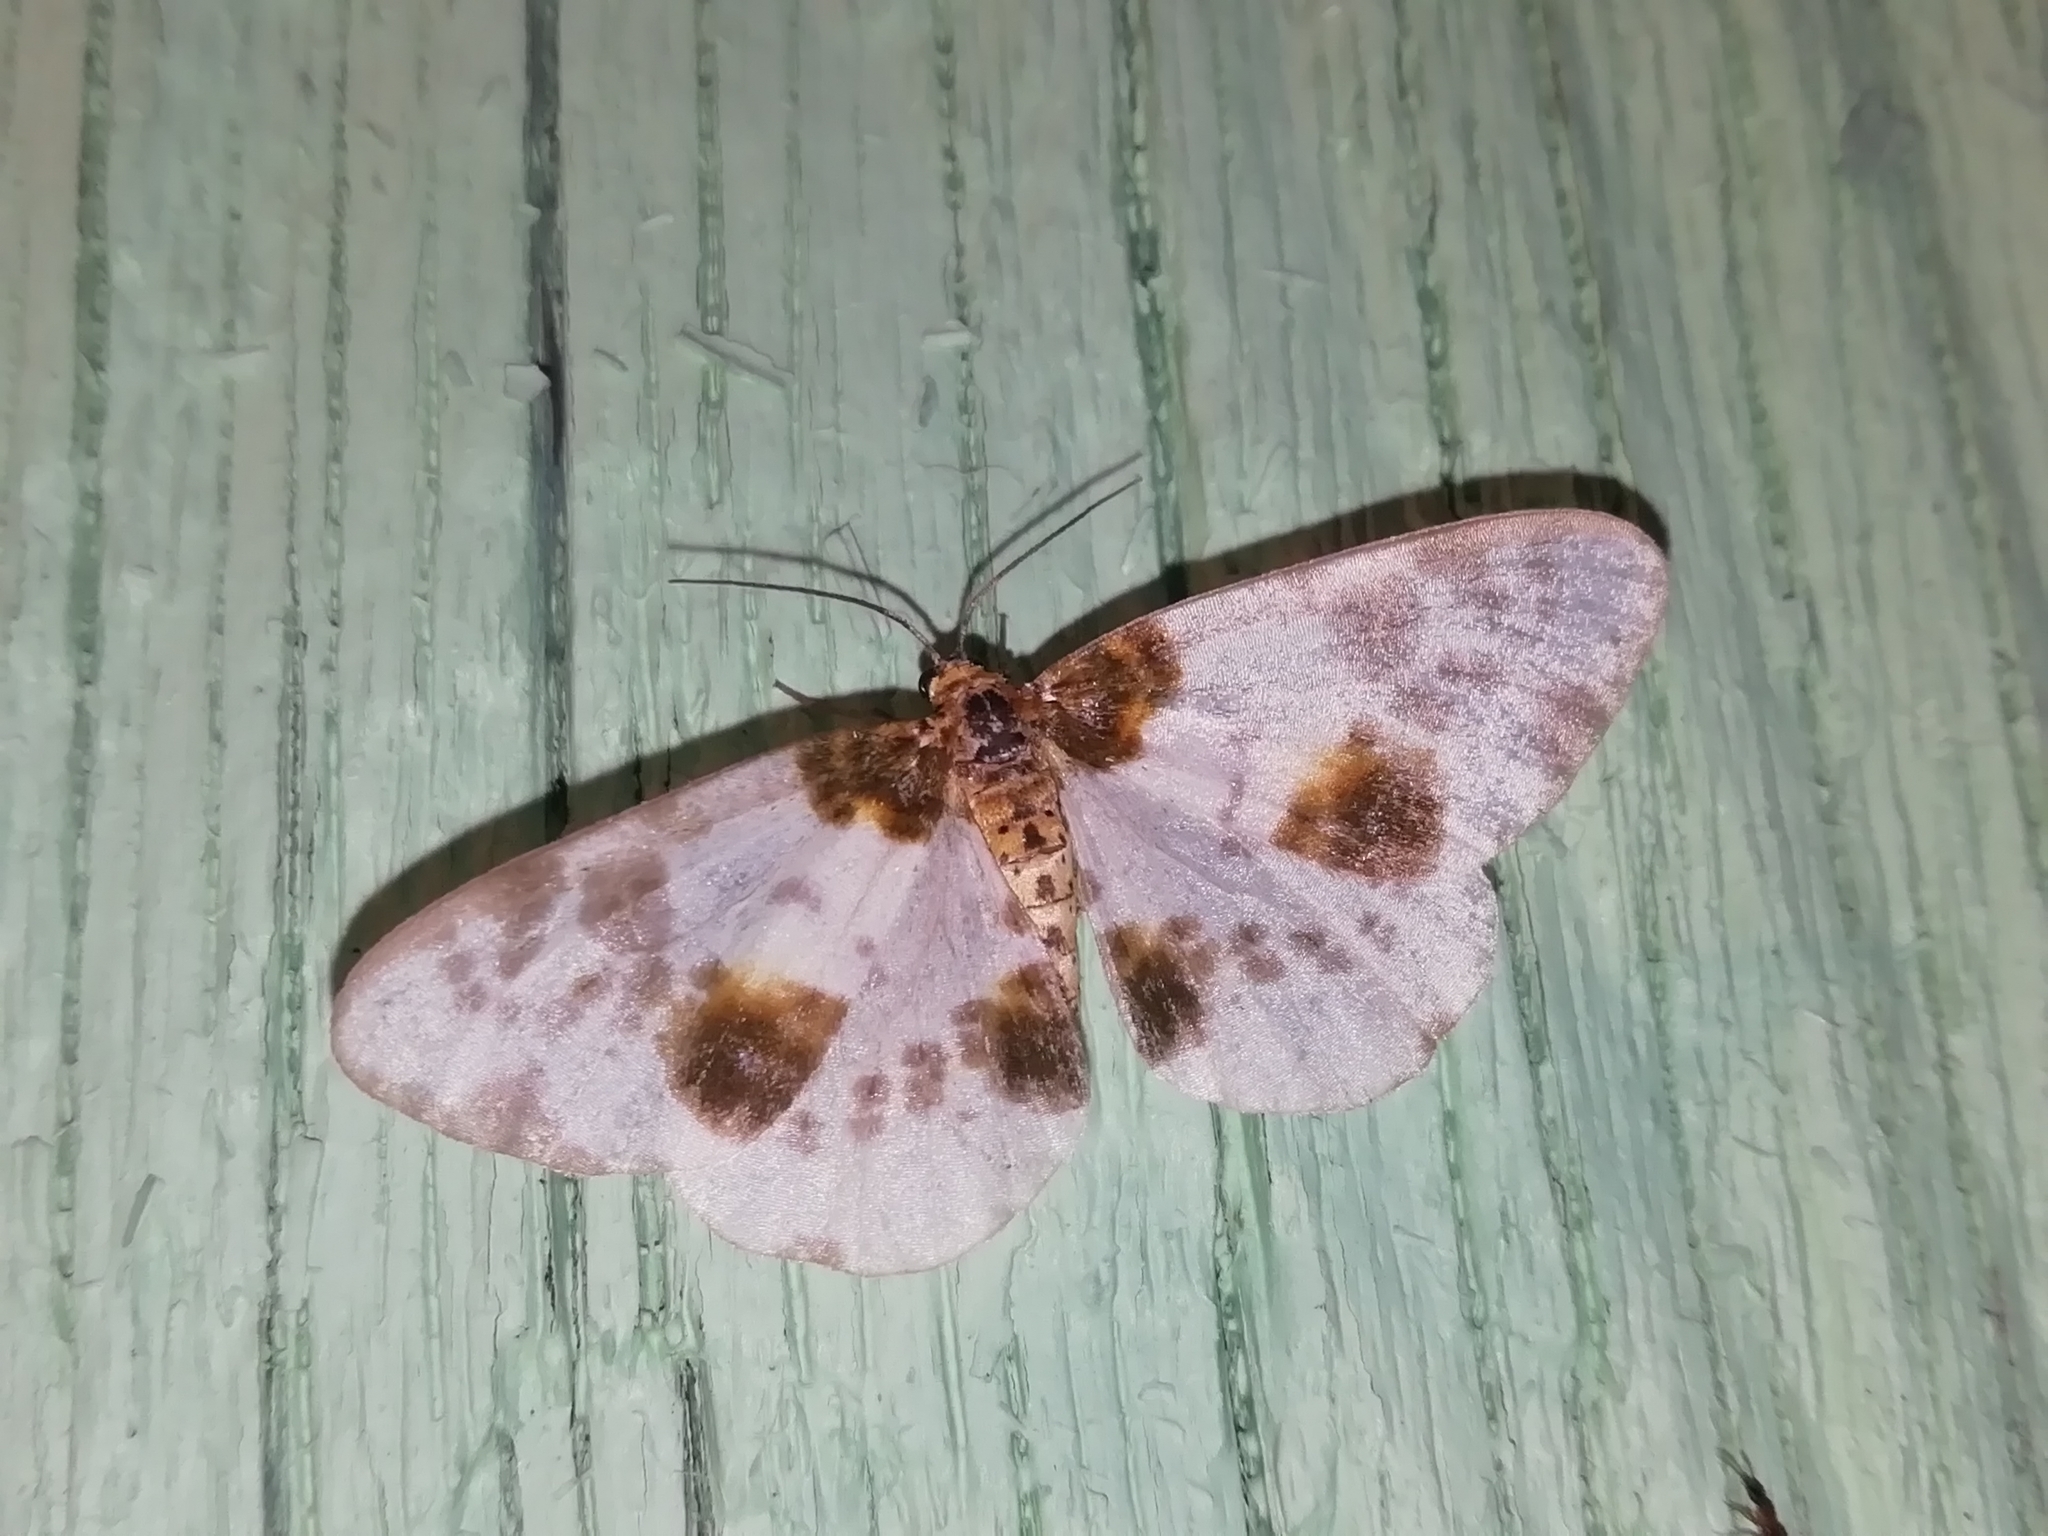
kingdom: Animalia
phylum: Arthropoda
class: Insecta
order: Lepidoptera
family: Geometridae
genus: Abraxas
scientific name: Abraxas sylvata
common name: Clouded magpie
